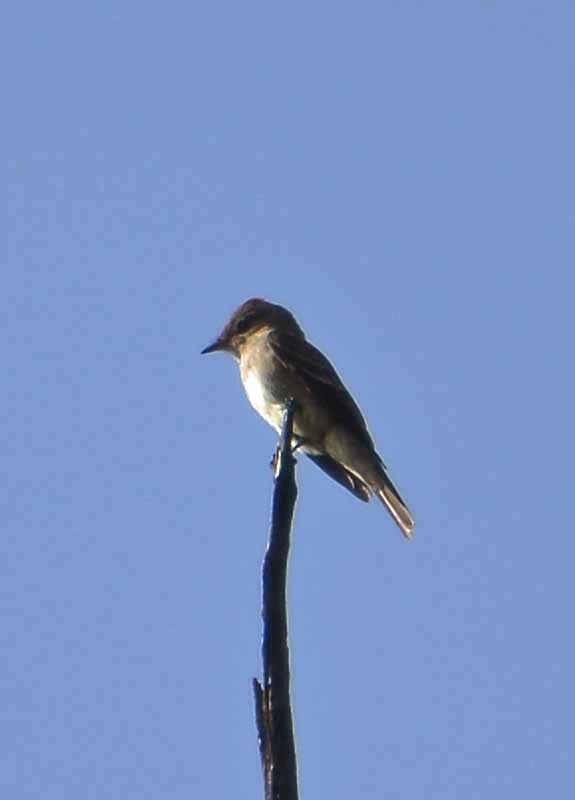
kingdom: Animalia
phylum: Chordata
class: Aves
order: Passeriformes
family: Tyrannidae
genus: Contopus
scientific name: Contopus sordidulus
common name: Western wood-pewee
